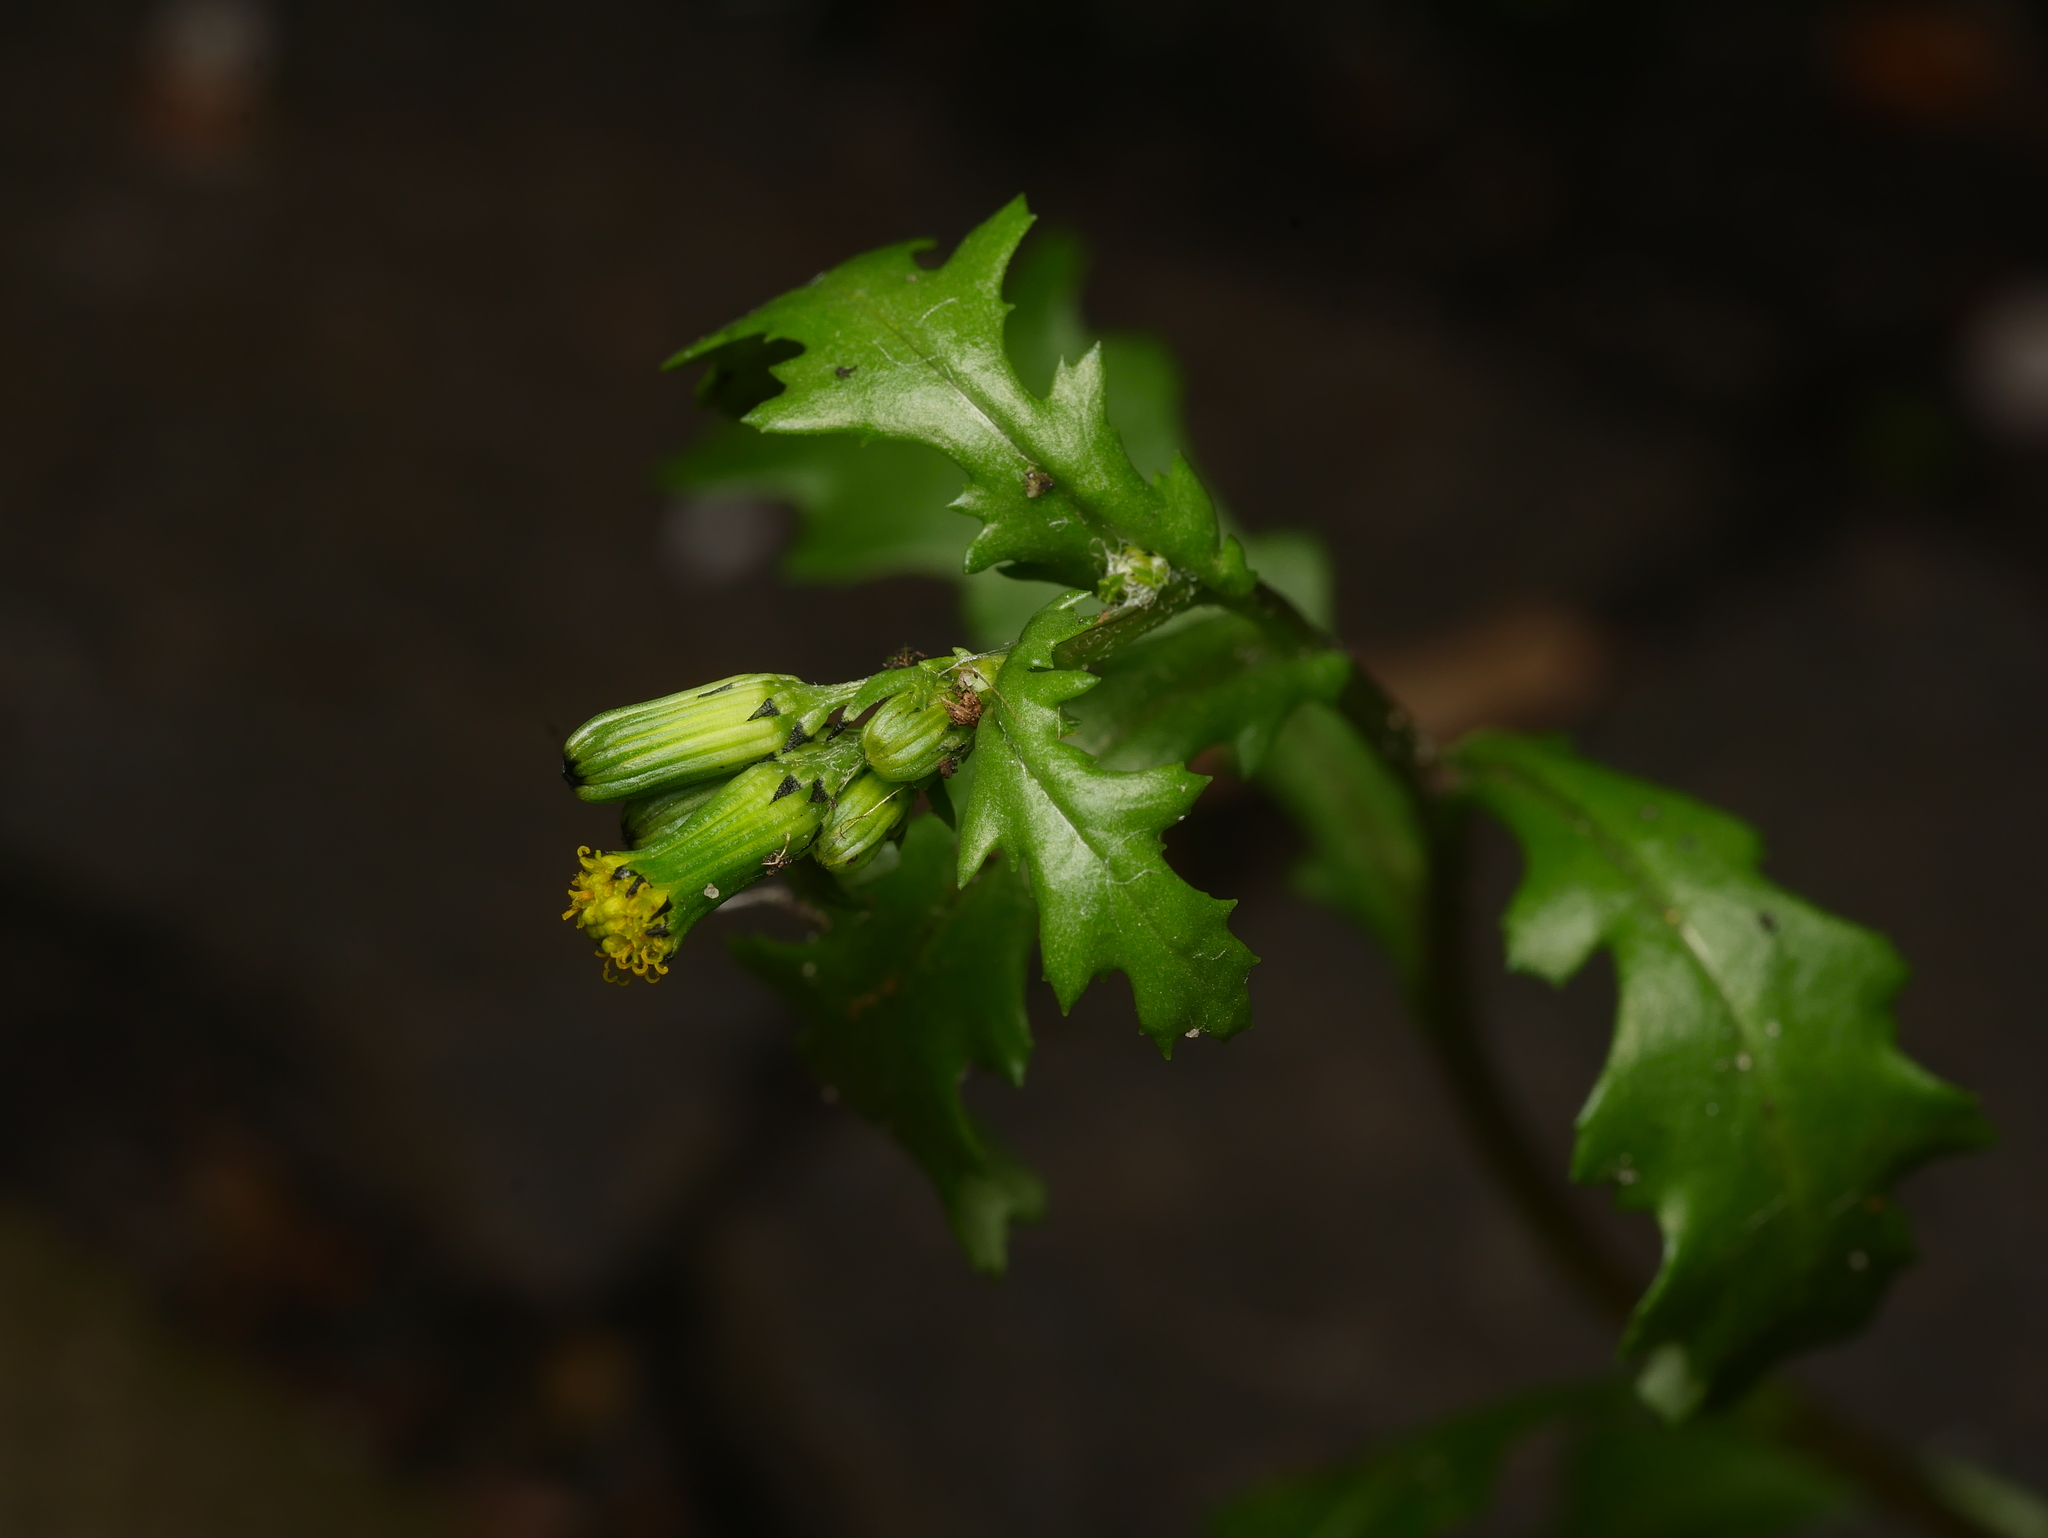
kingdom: Plantae
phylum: Tracheophyta
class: Magnoliopsida
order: Asterales
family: Asteraceae
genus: Senecio
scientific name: Senecio vulgaris
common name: Old-man-in-the-spring
